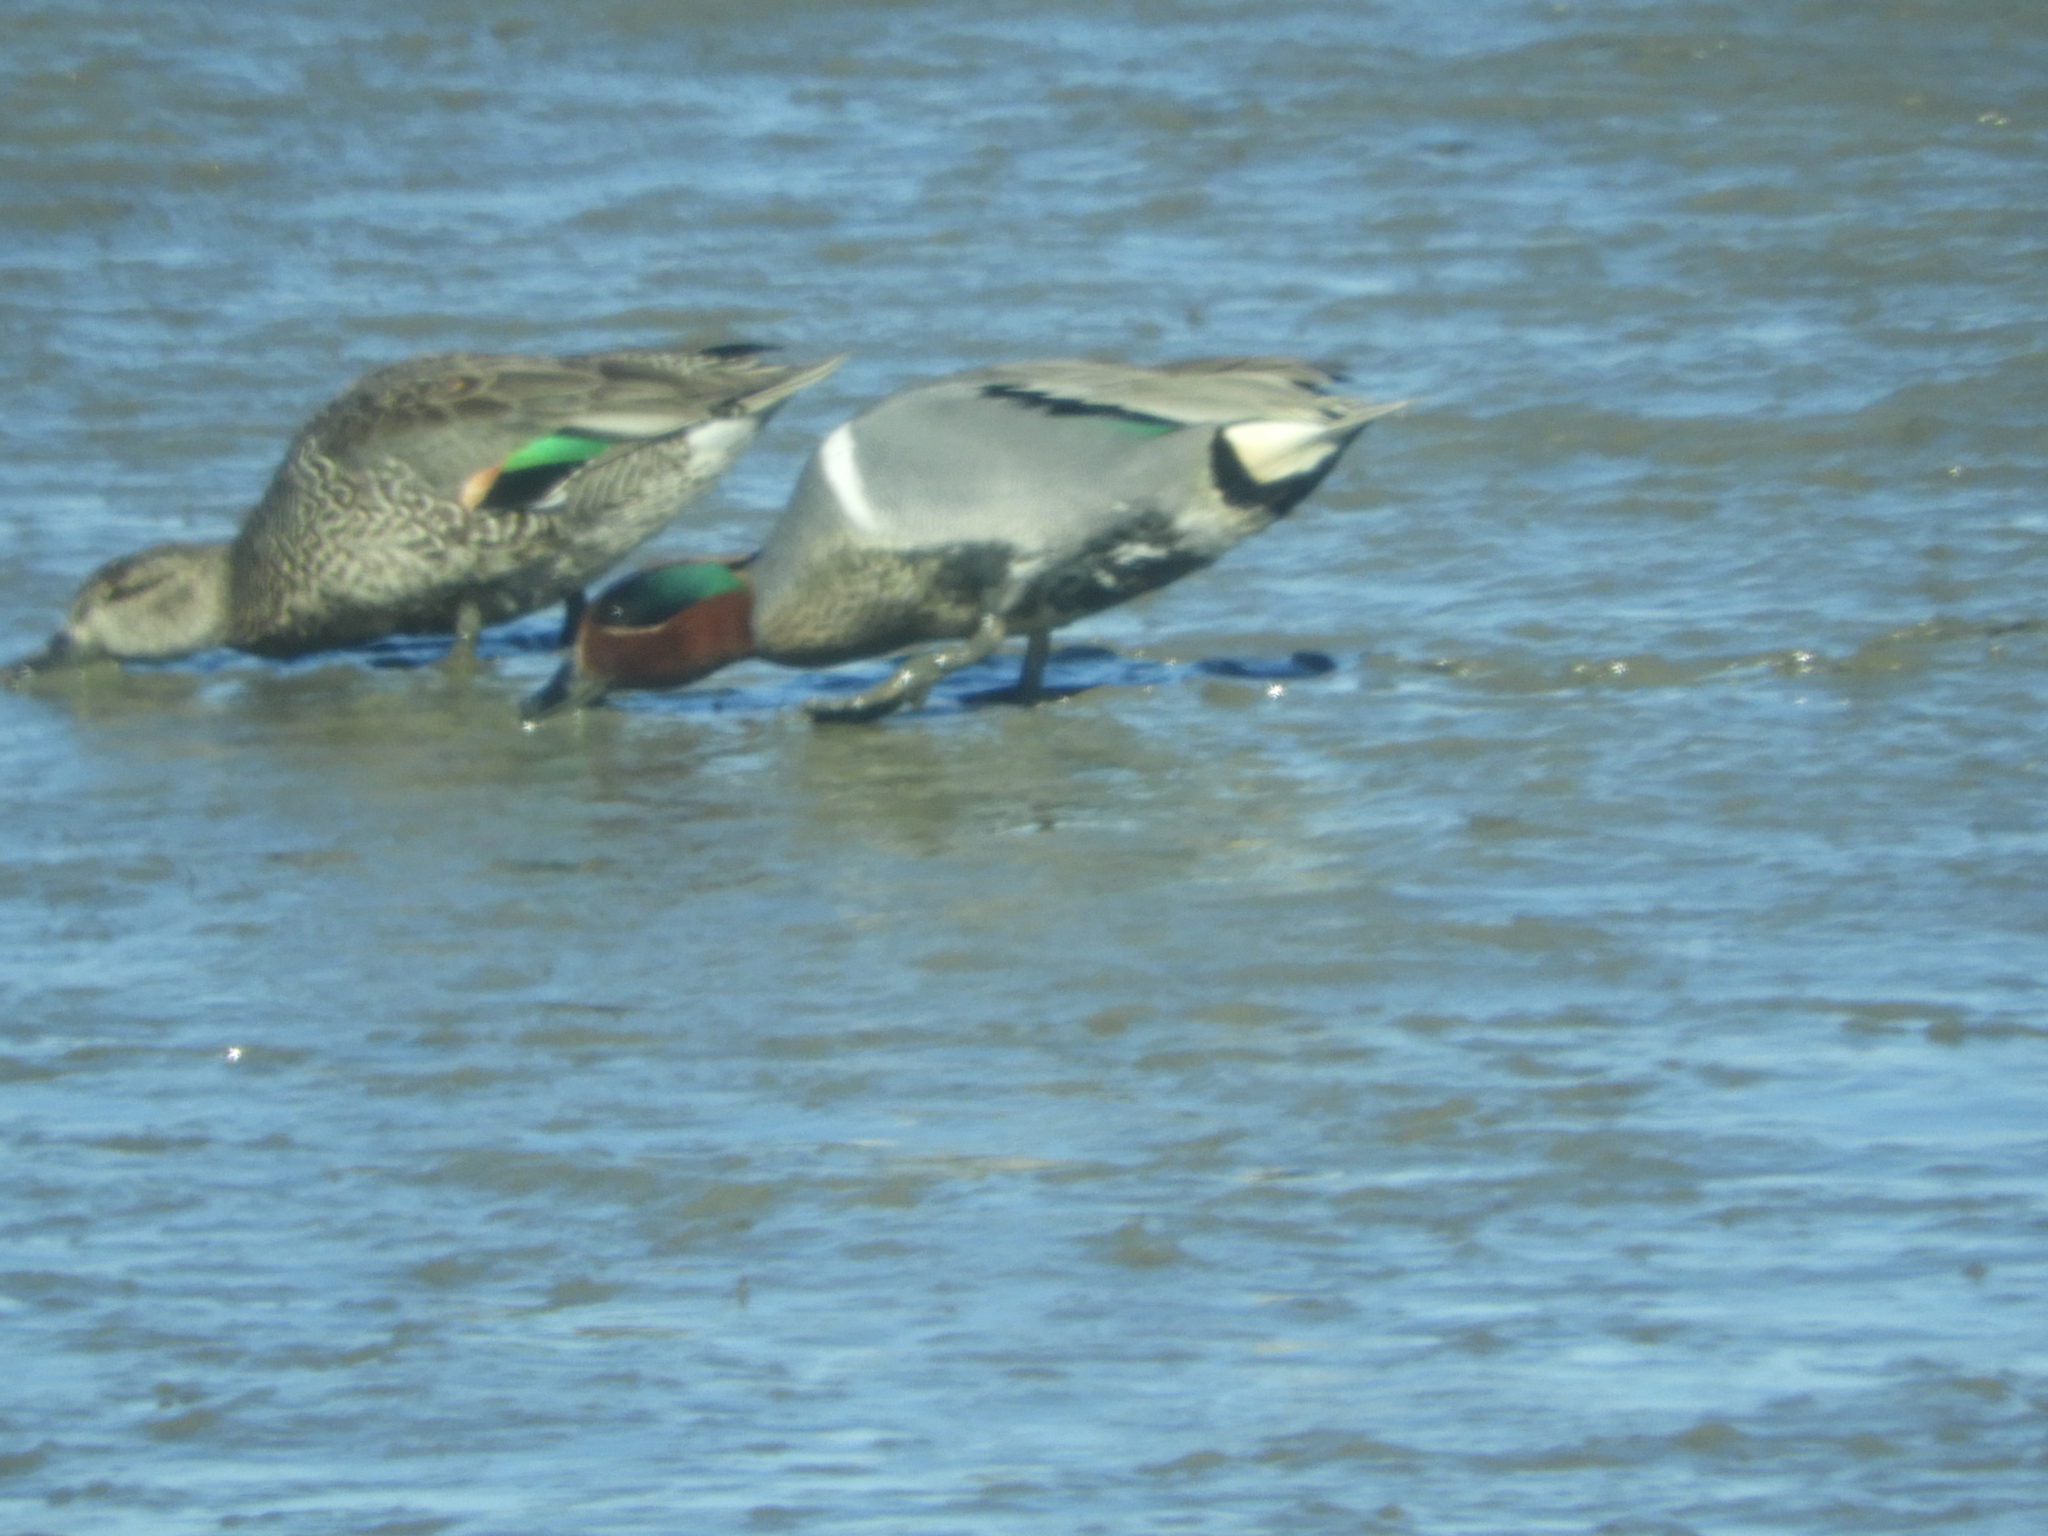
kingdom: Animalia
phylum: Chordata
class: Aves
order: Anseriformes
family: Anatidae
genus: Anas
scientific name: Anas crecca
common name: Eurasian teal
